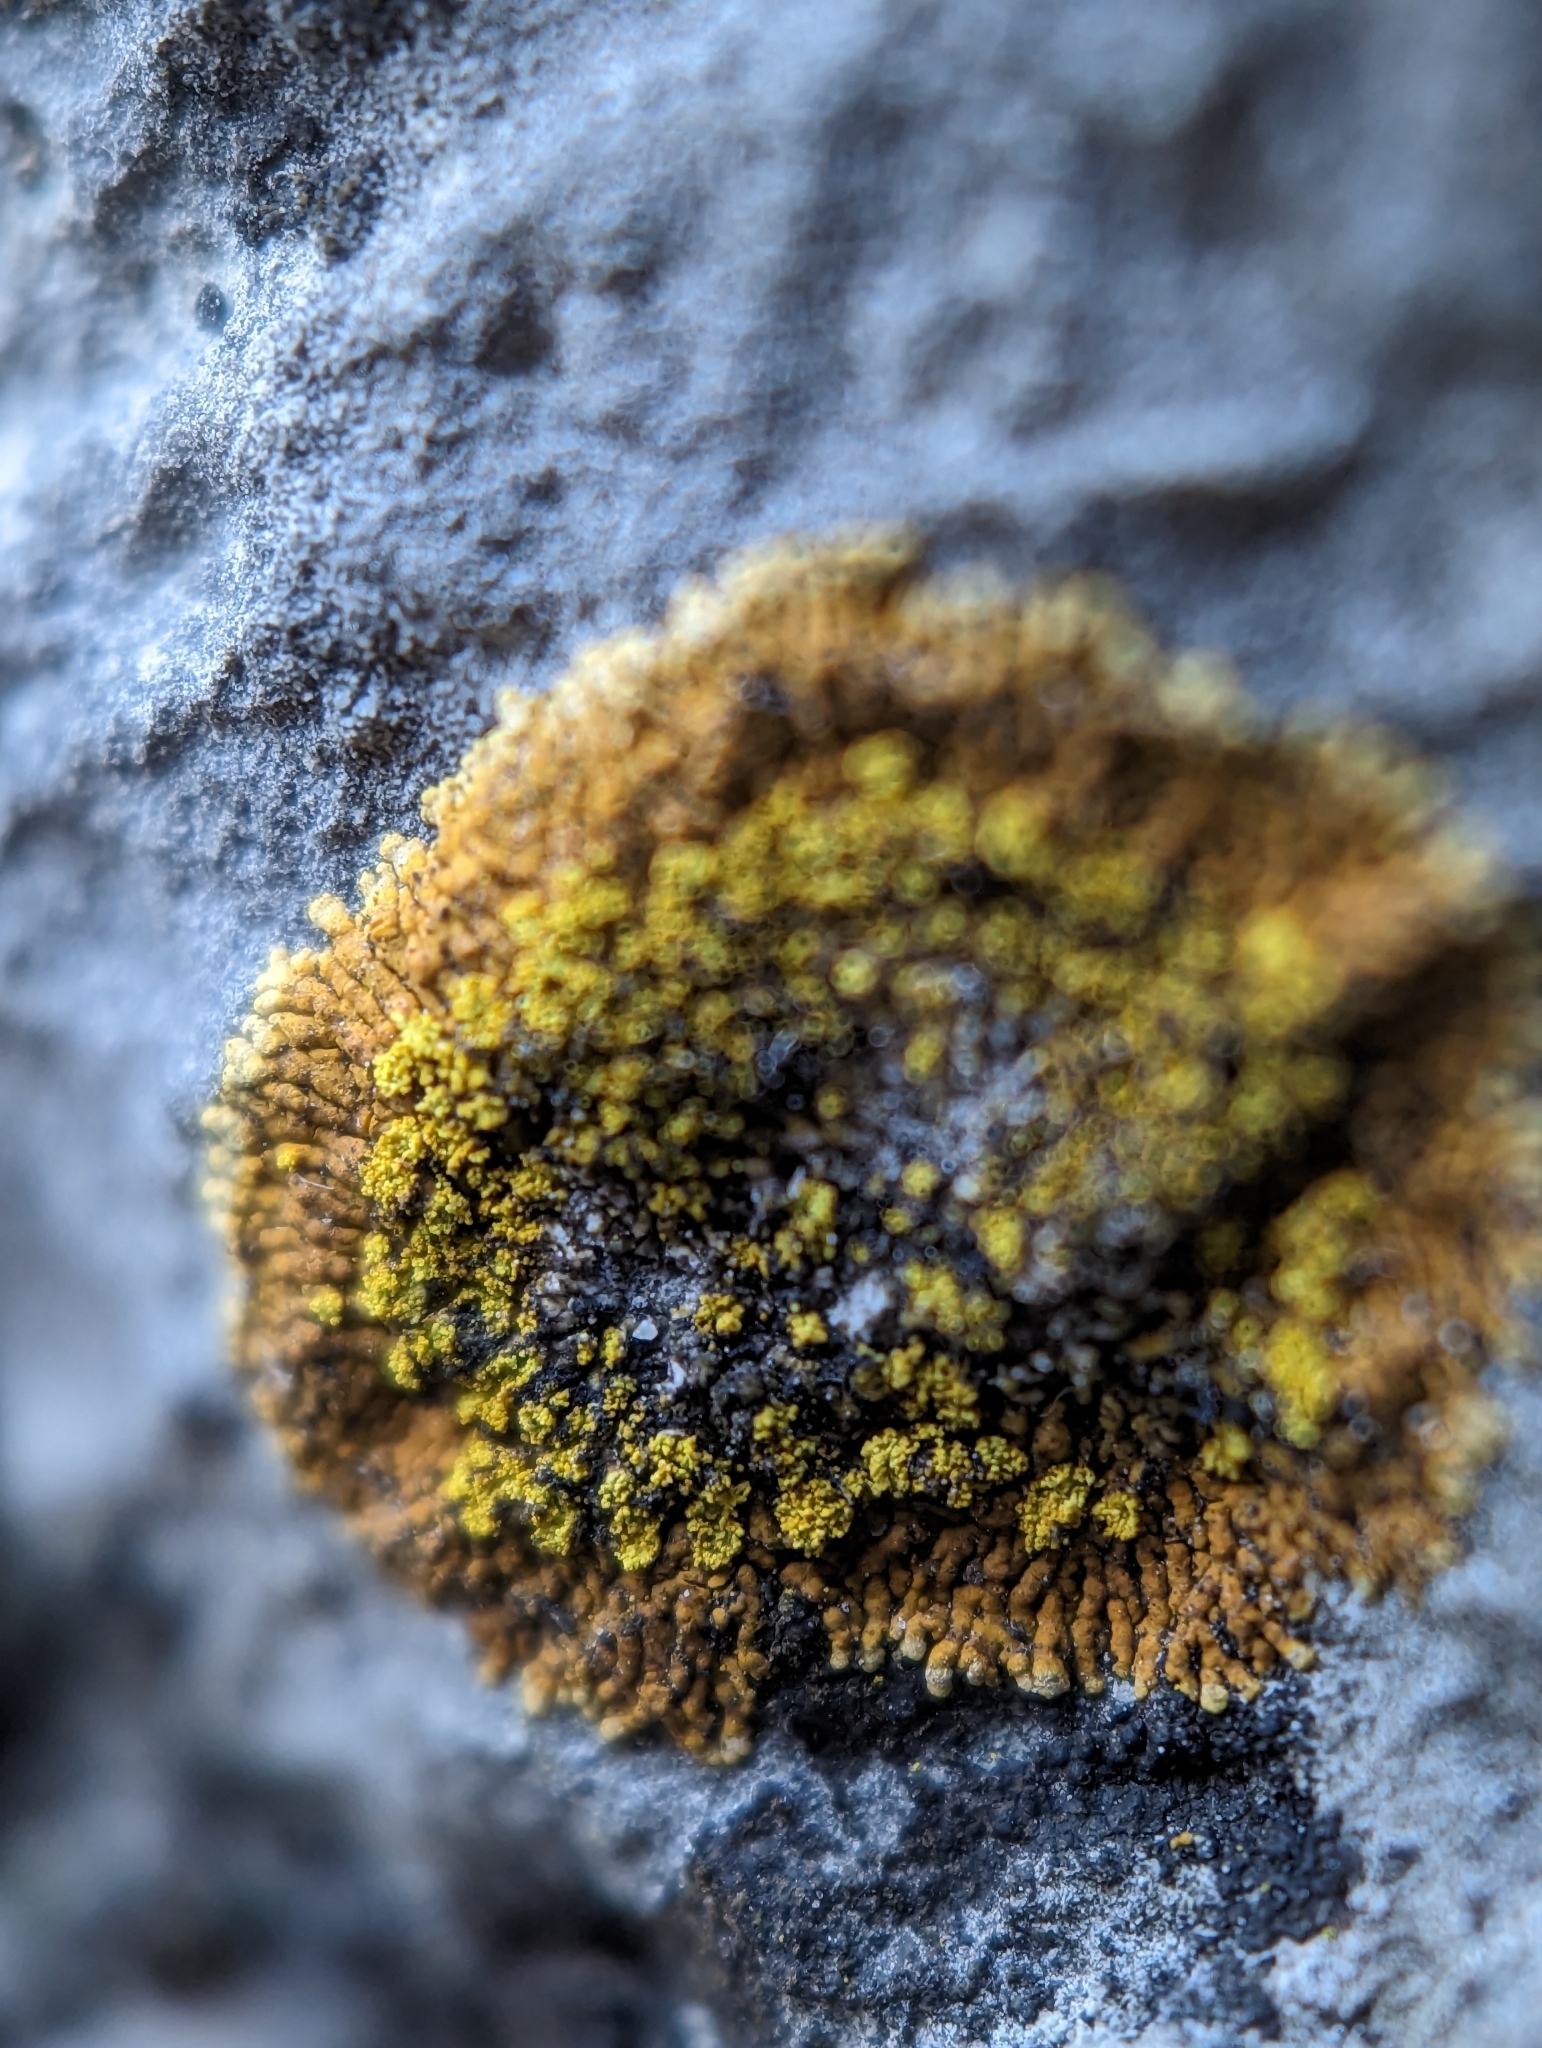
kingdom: Fungi
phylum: Ascomycota
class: Lecanoromycetes
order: Teloschistales
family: Teloschistaceae
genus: Leproplaca
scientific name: Leproplaca cirrochroa
